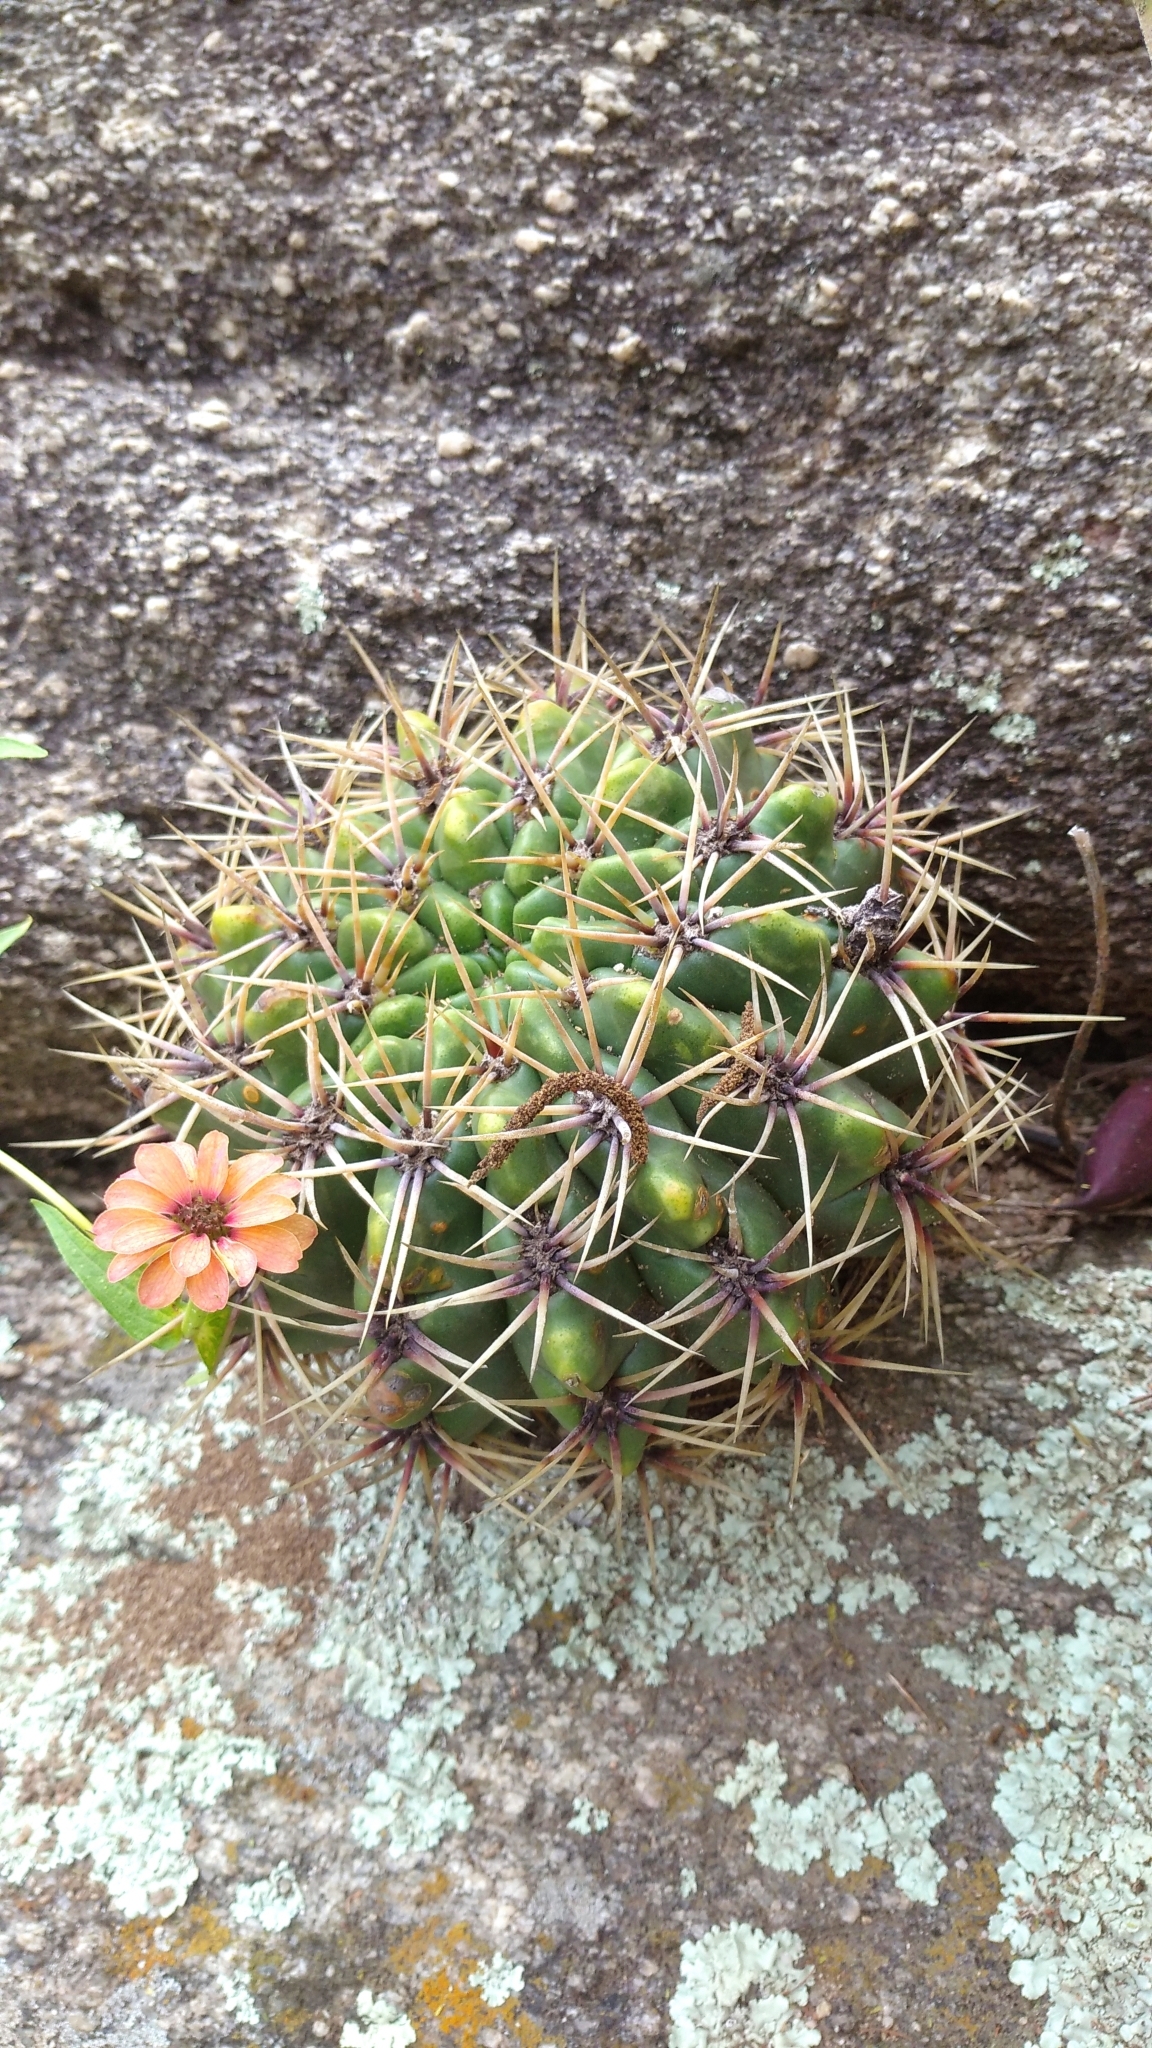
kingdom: Plantae
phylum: Tracheophyta
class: Magnoliopsida
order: Caryophyllales
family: Cactaceae
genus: Gymnocalycium
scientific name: Gymnocalycium monvillei
